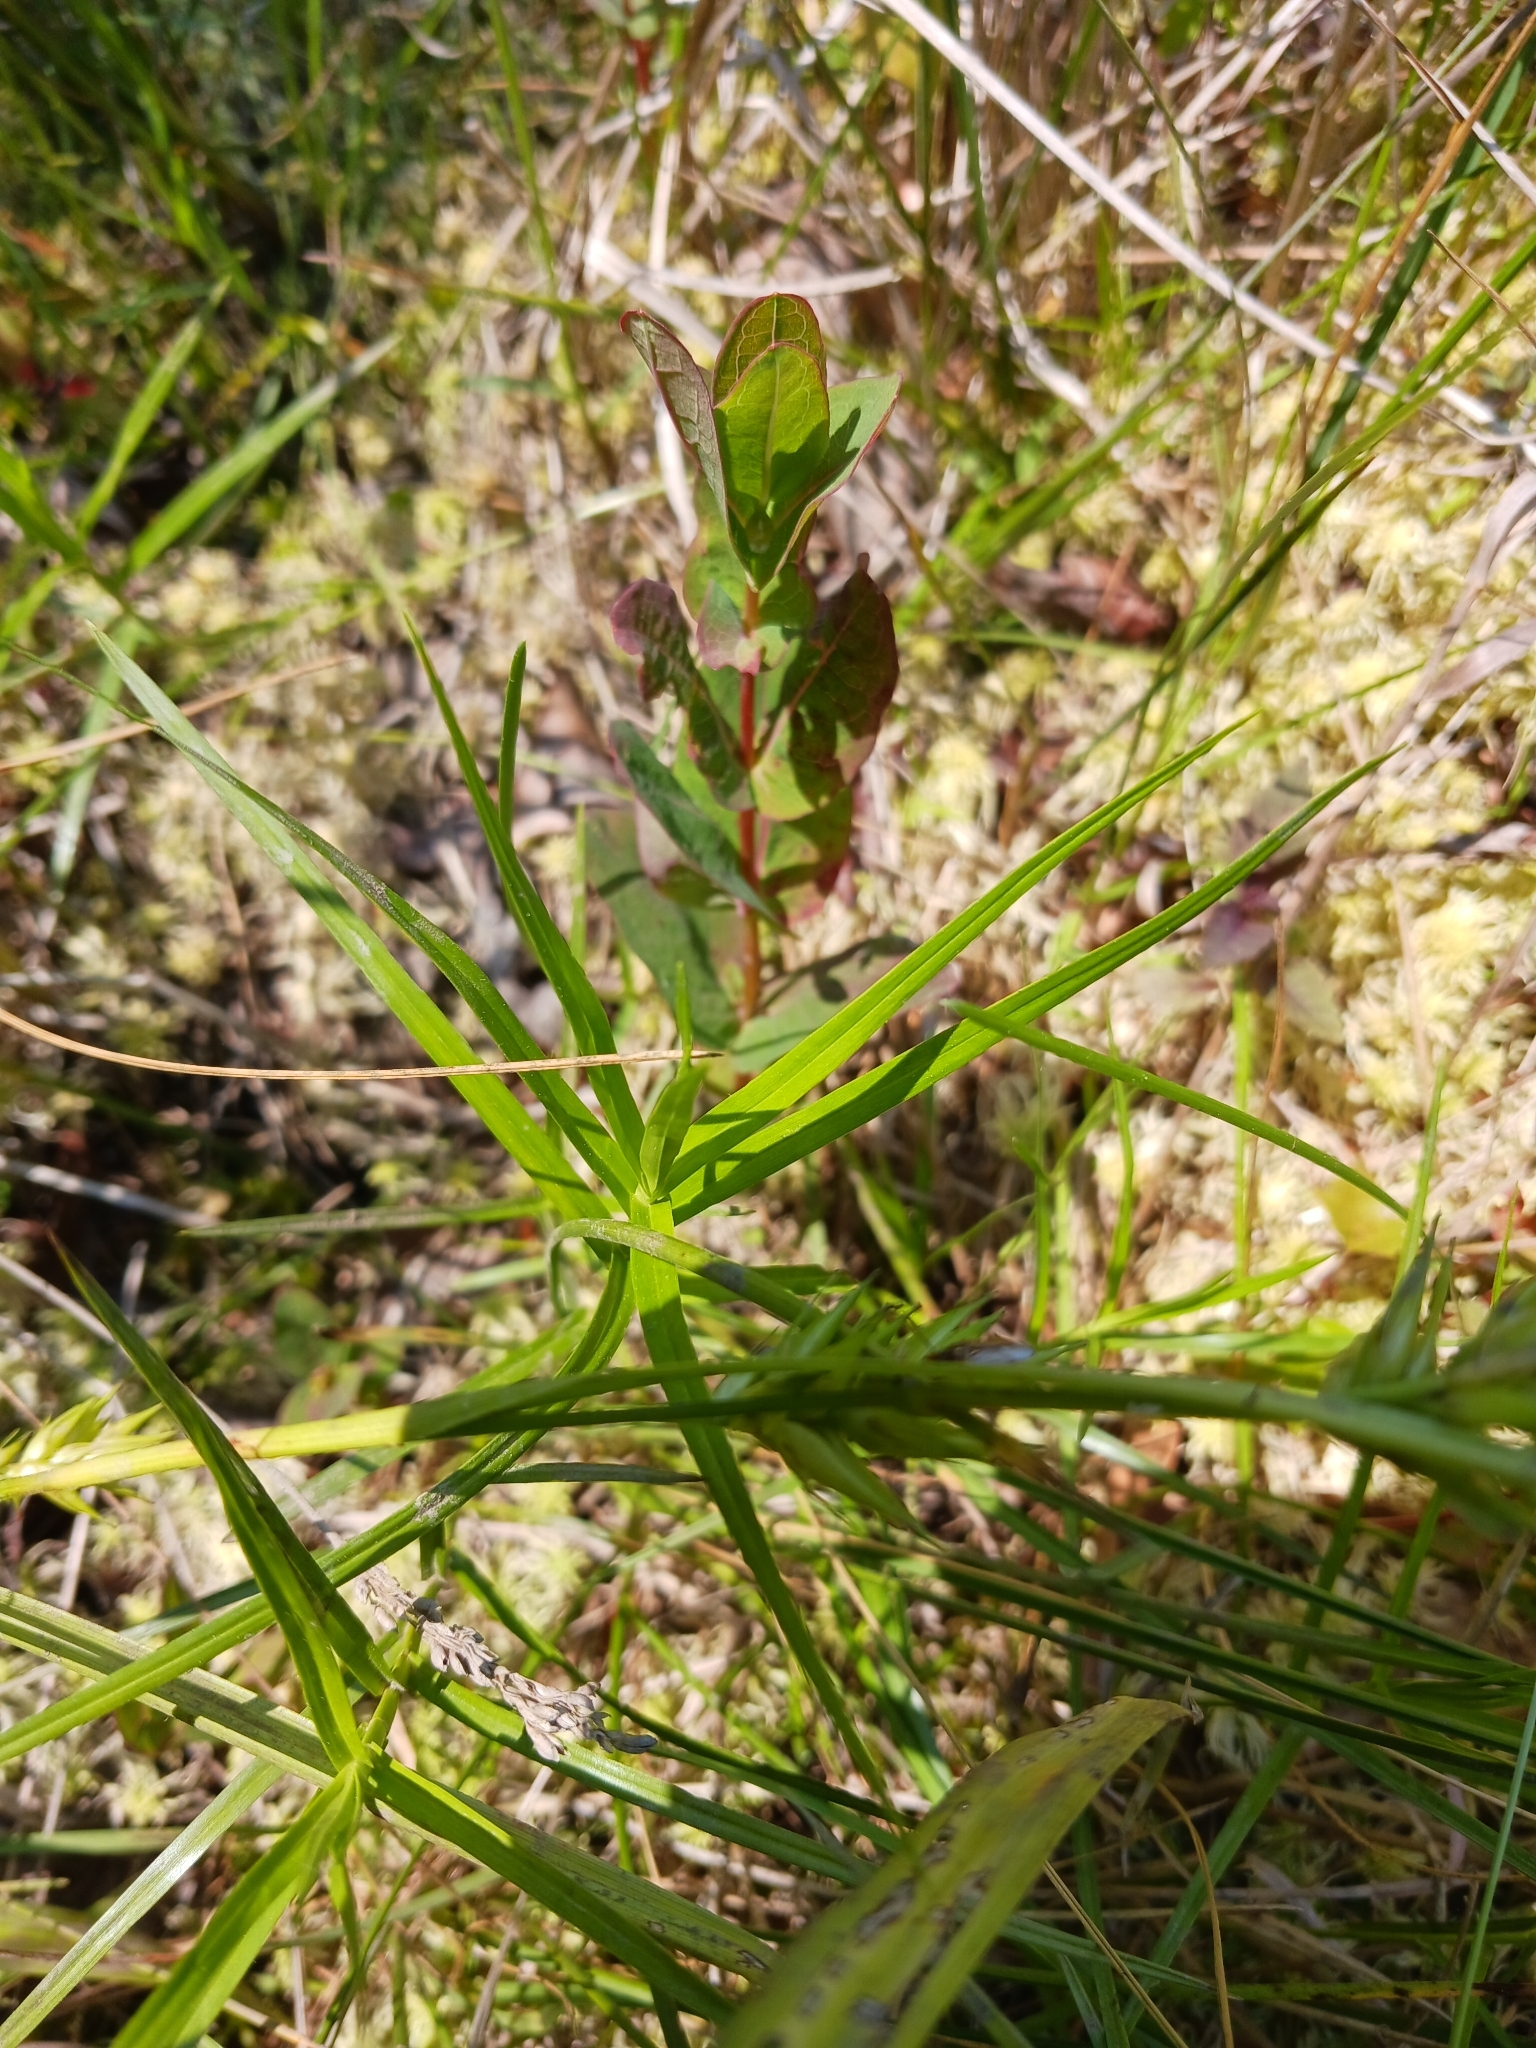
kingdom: Plantae
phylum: Tracheophyta
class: Liliopsida
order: Poales
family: Cyperaceae
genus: Dulichium
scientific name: Dulichium arundinaceum
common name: Three-way sedge
